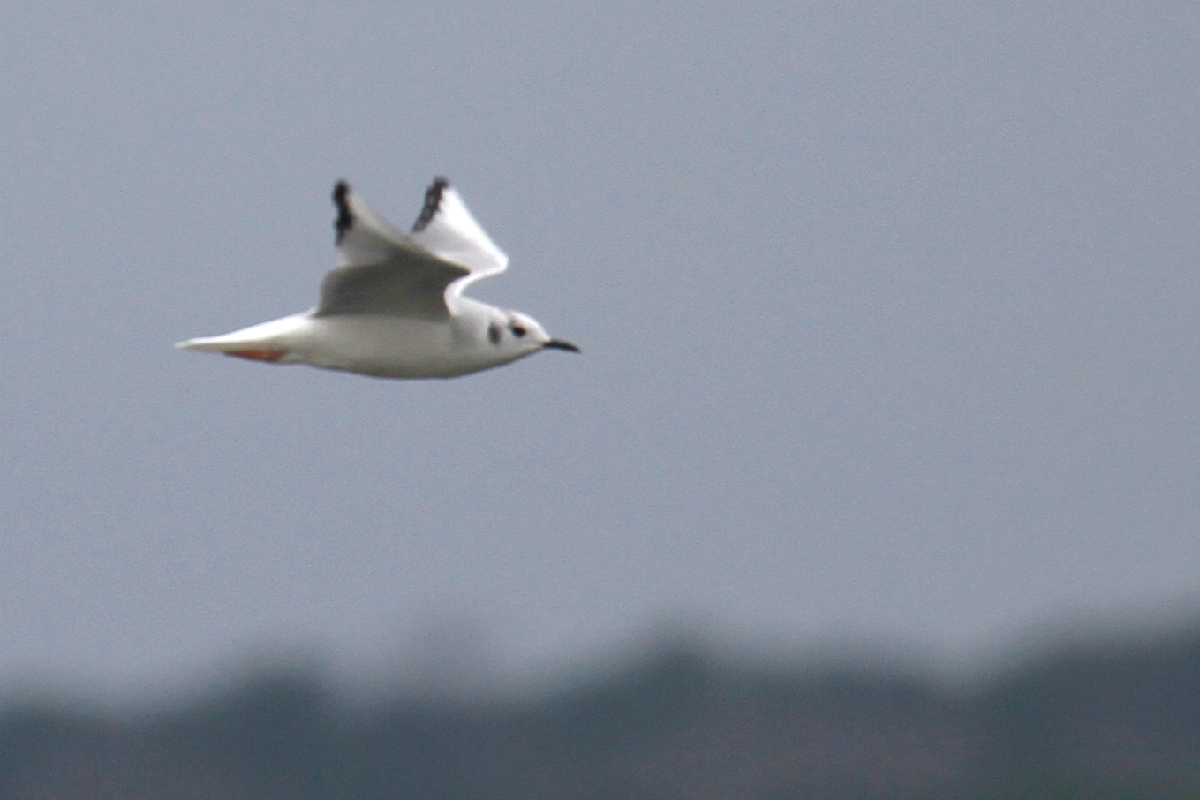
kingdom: Animalia
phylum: Chordata
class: Aves
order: Charadriiformes
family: Laridae
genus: Chroicocephalus
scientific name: Chroicocephalus philadelphia
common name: Bonaparte's gull
